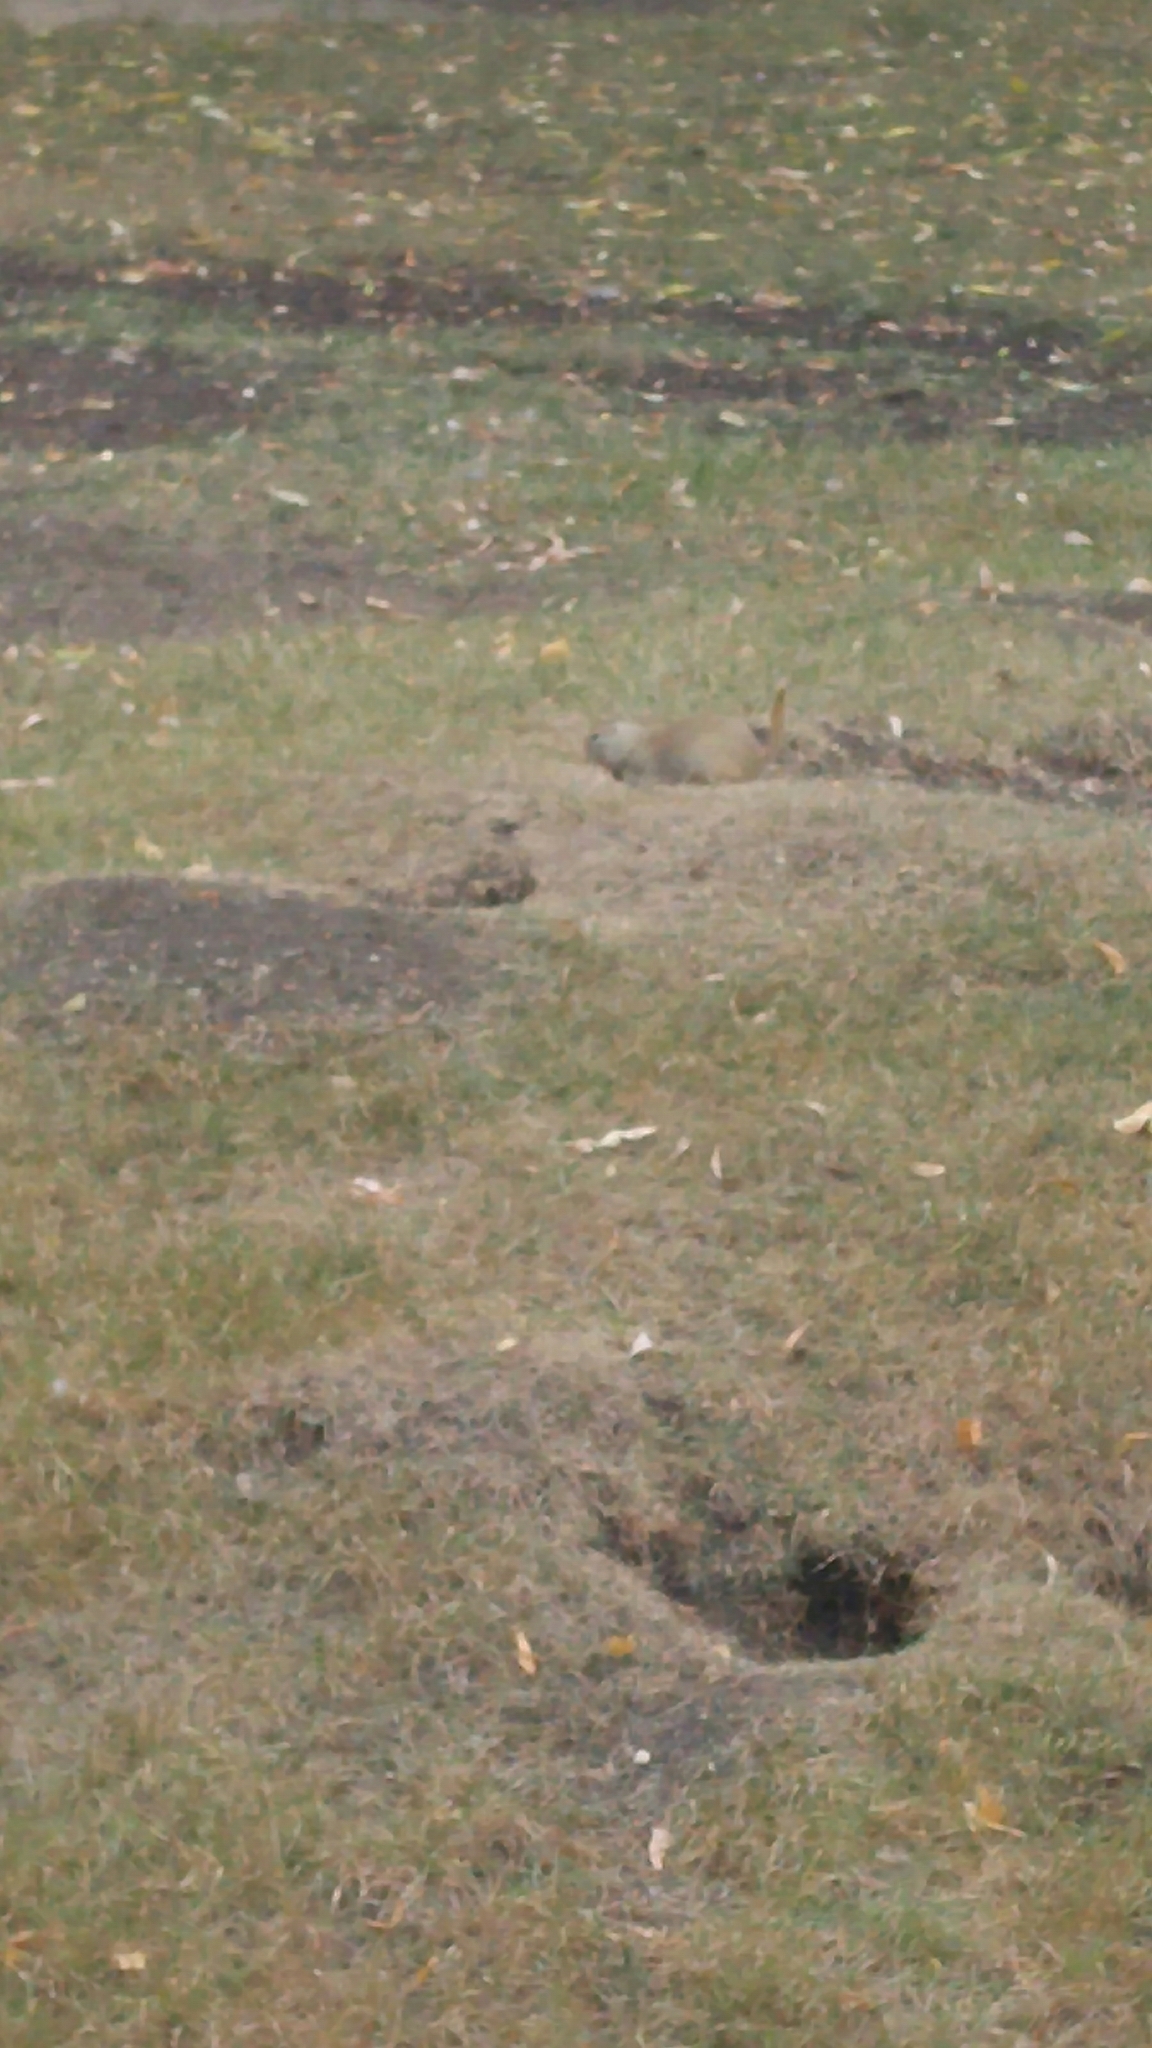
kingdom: Animalia
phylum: Chordata
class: Mammalia
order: Rodentia
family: Sciuridae
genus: Urocitellus
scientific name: Urocitellus richardsonii
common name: Richardson's ground squirrel
